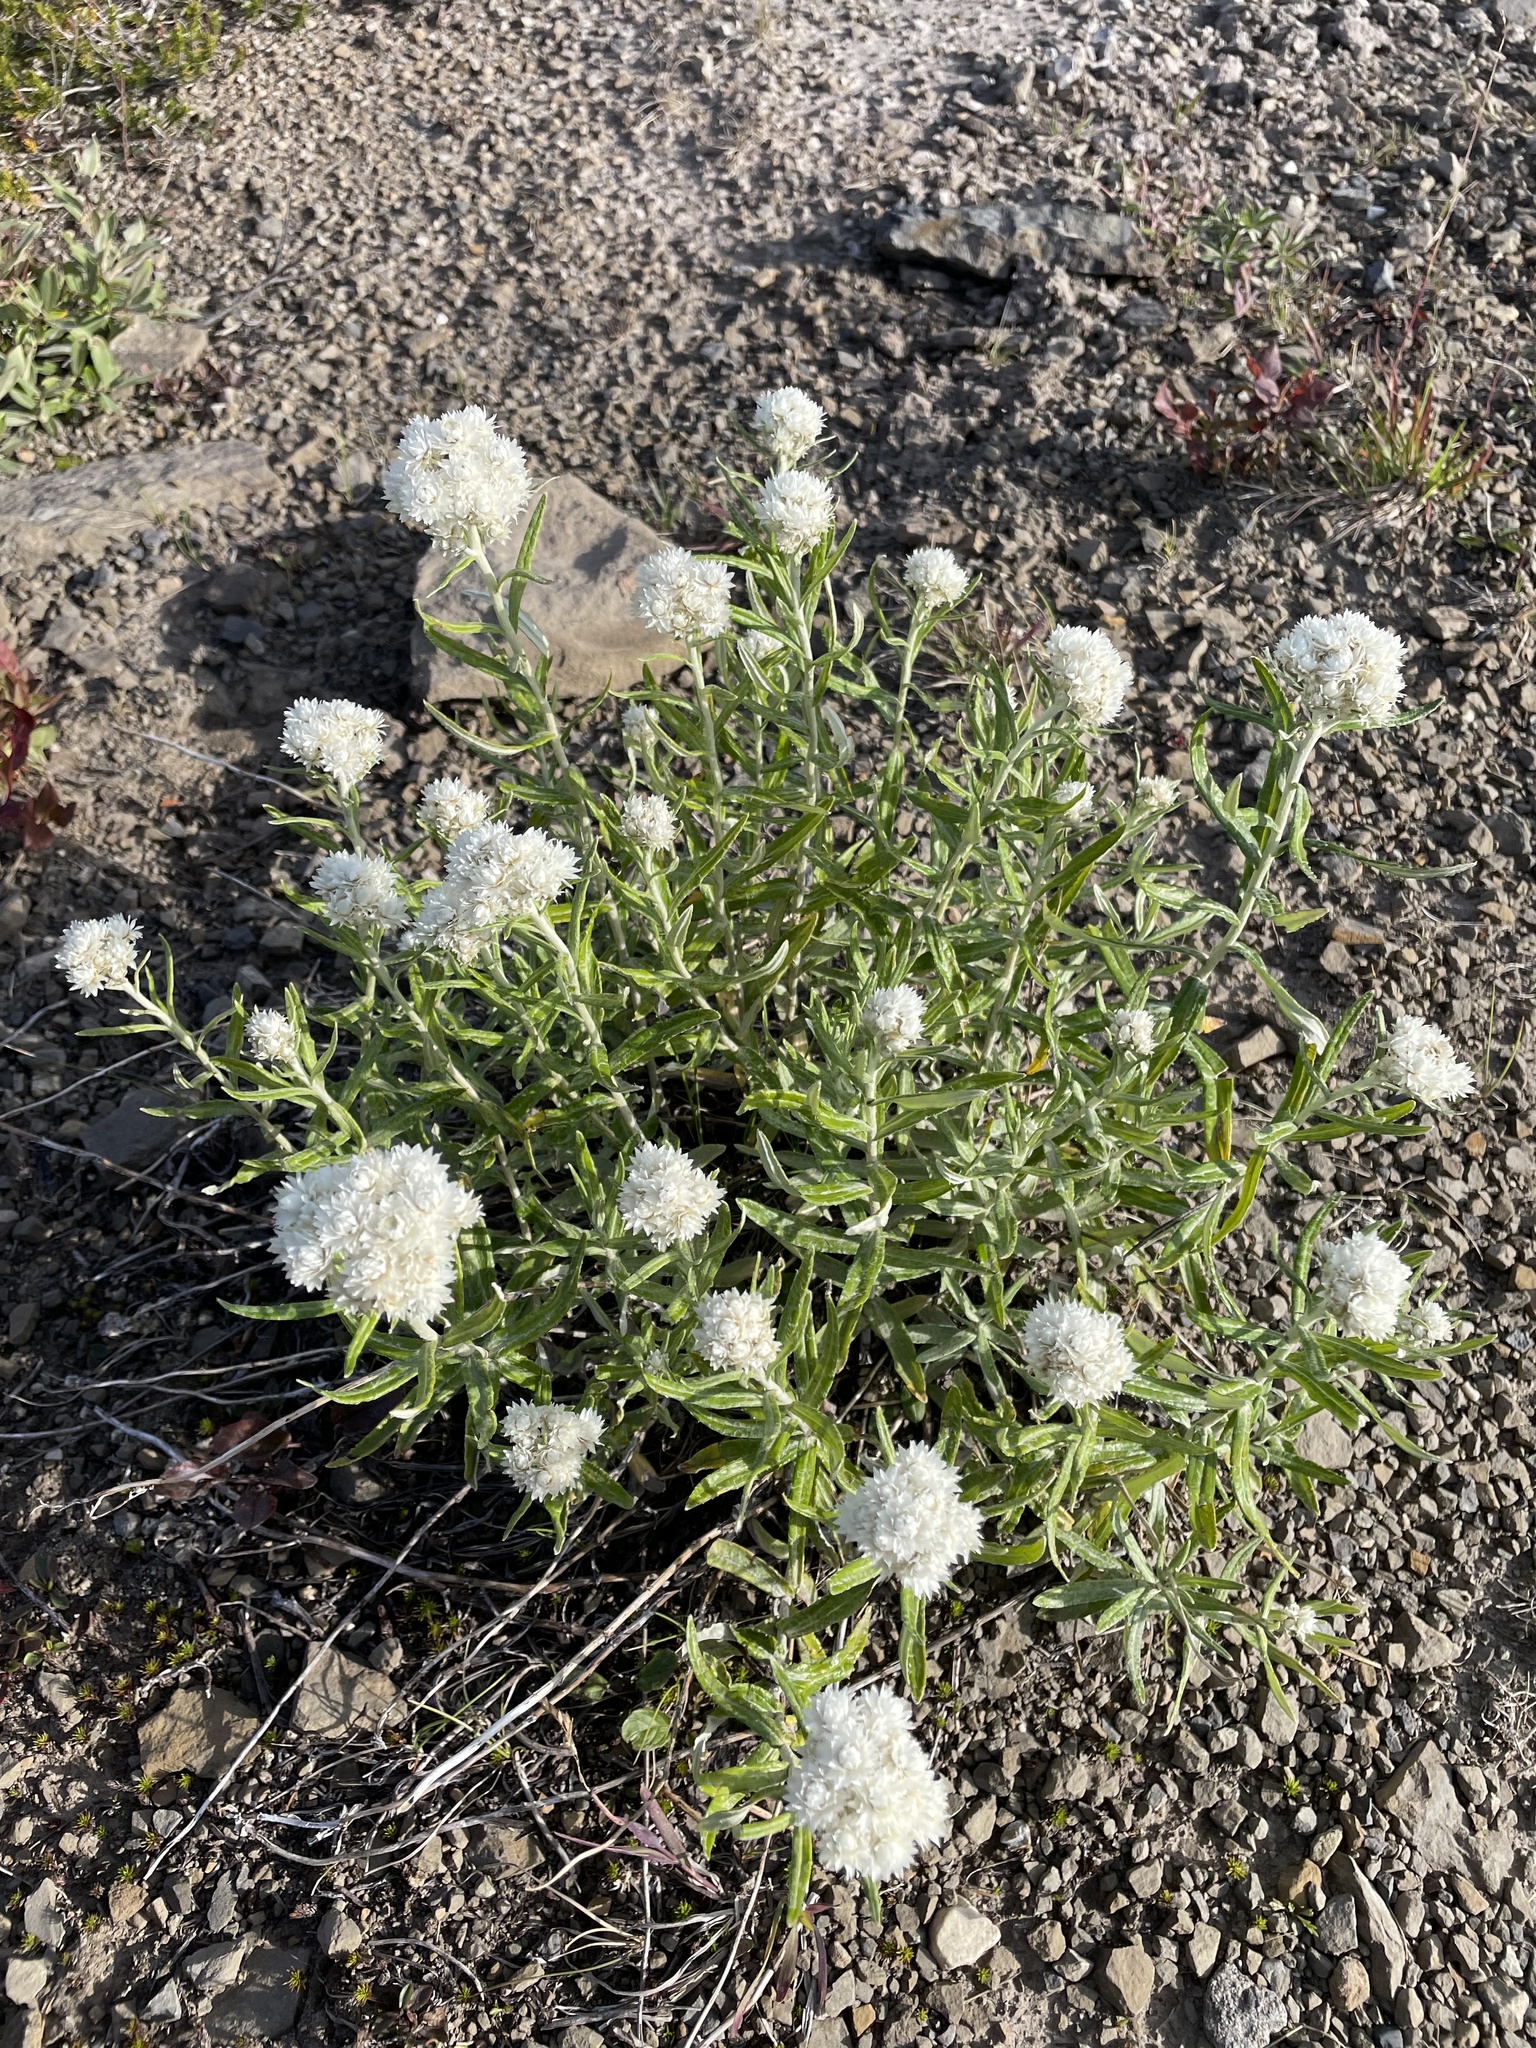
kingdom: Plantae
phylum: Tracheophyta
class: Magnoliopsida
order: Asterales
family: Asteraceae
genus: Anaphalis
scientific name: Anaphalis margaritacea
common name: Pearly everlasting
